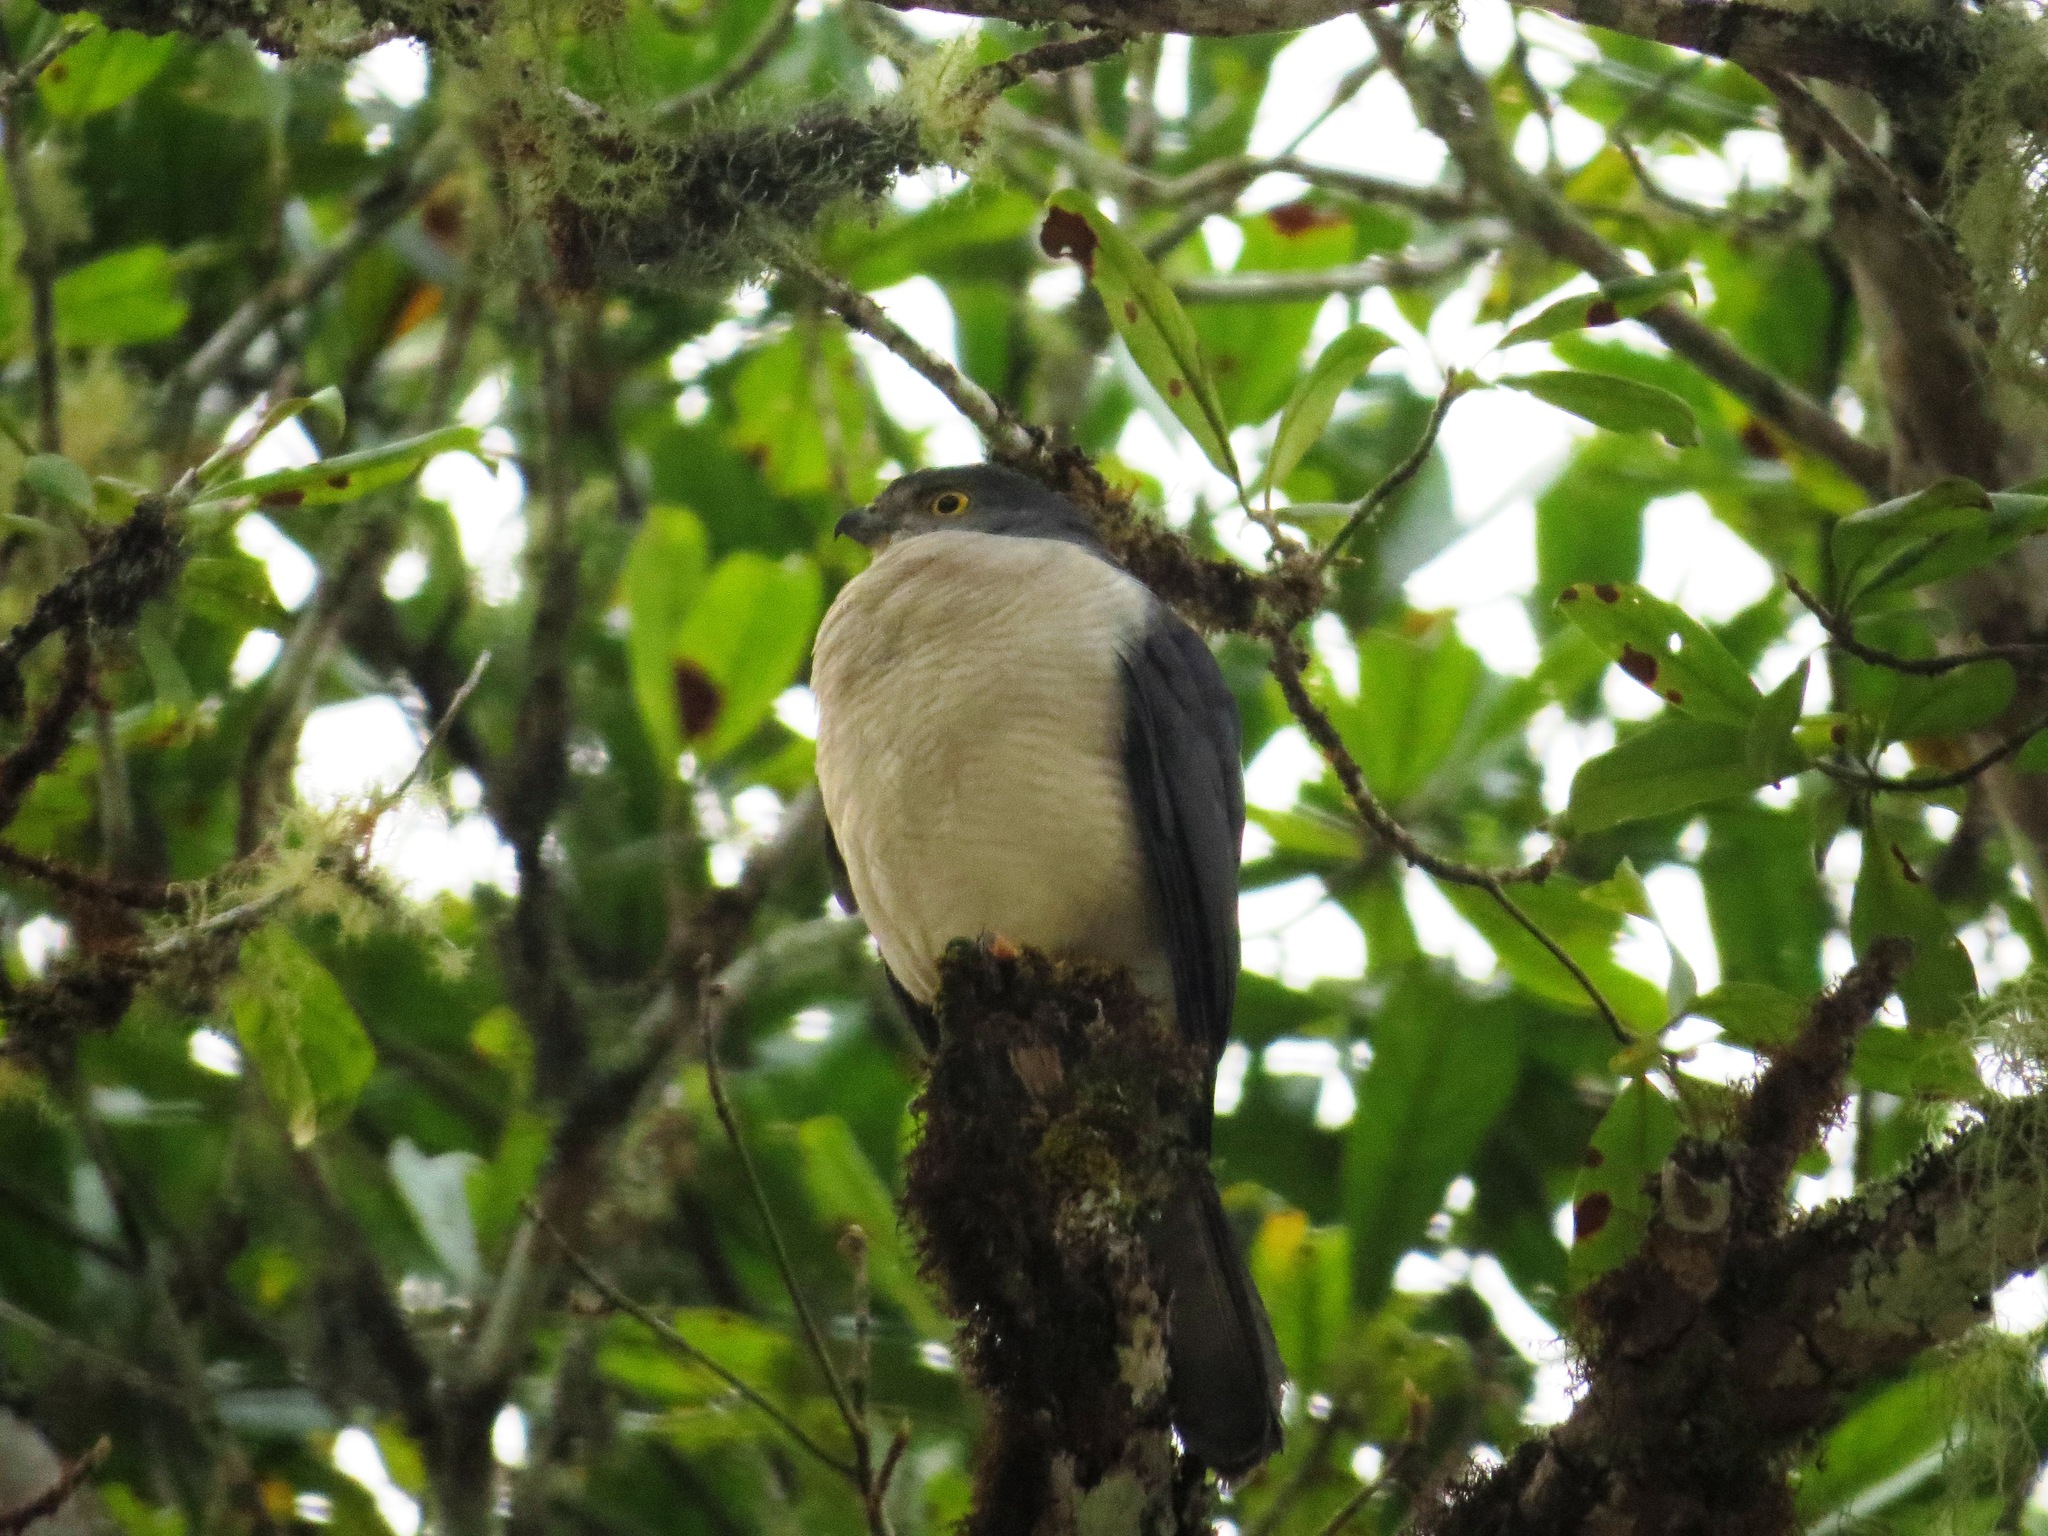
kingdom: Animalia
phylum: Chordata
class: Aves
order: Accipitriformes
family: Accipitridae
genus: Accipiter
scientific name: Accipiter francesiae
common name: Frances's sparrowhawk
